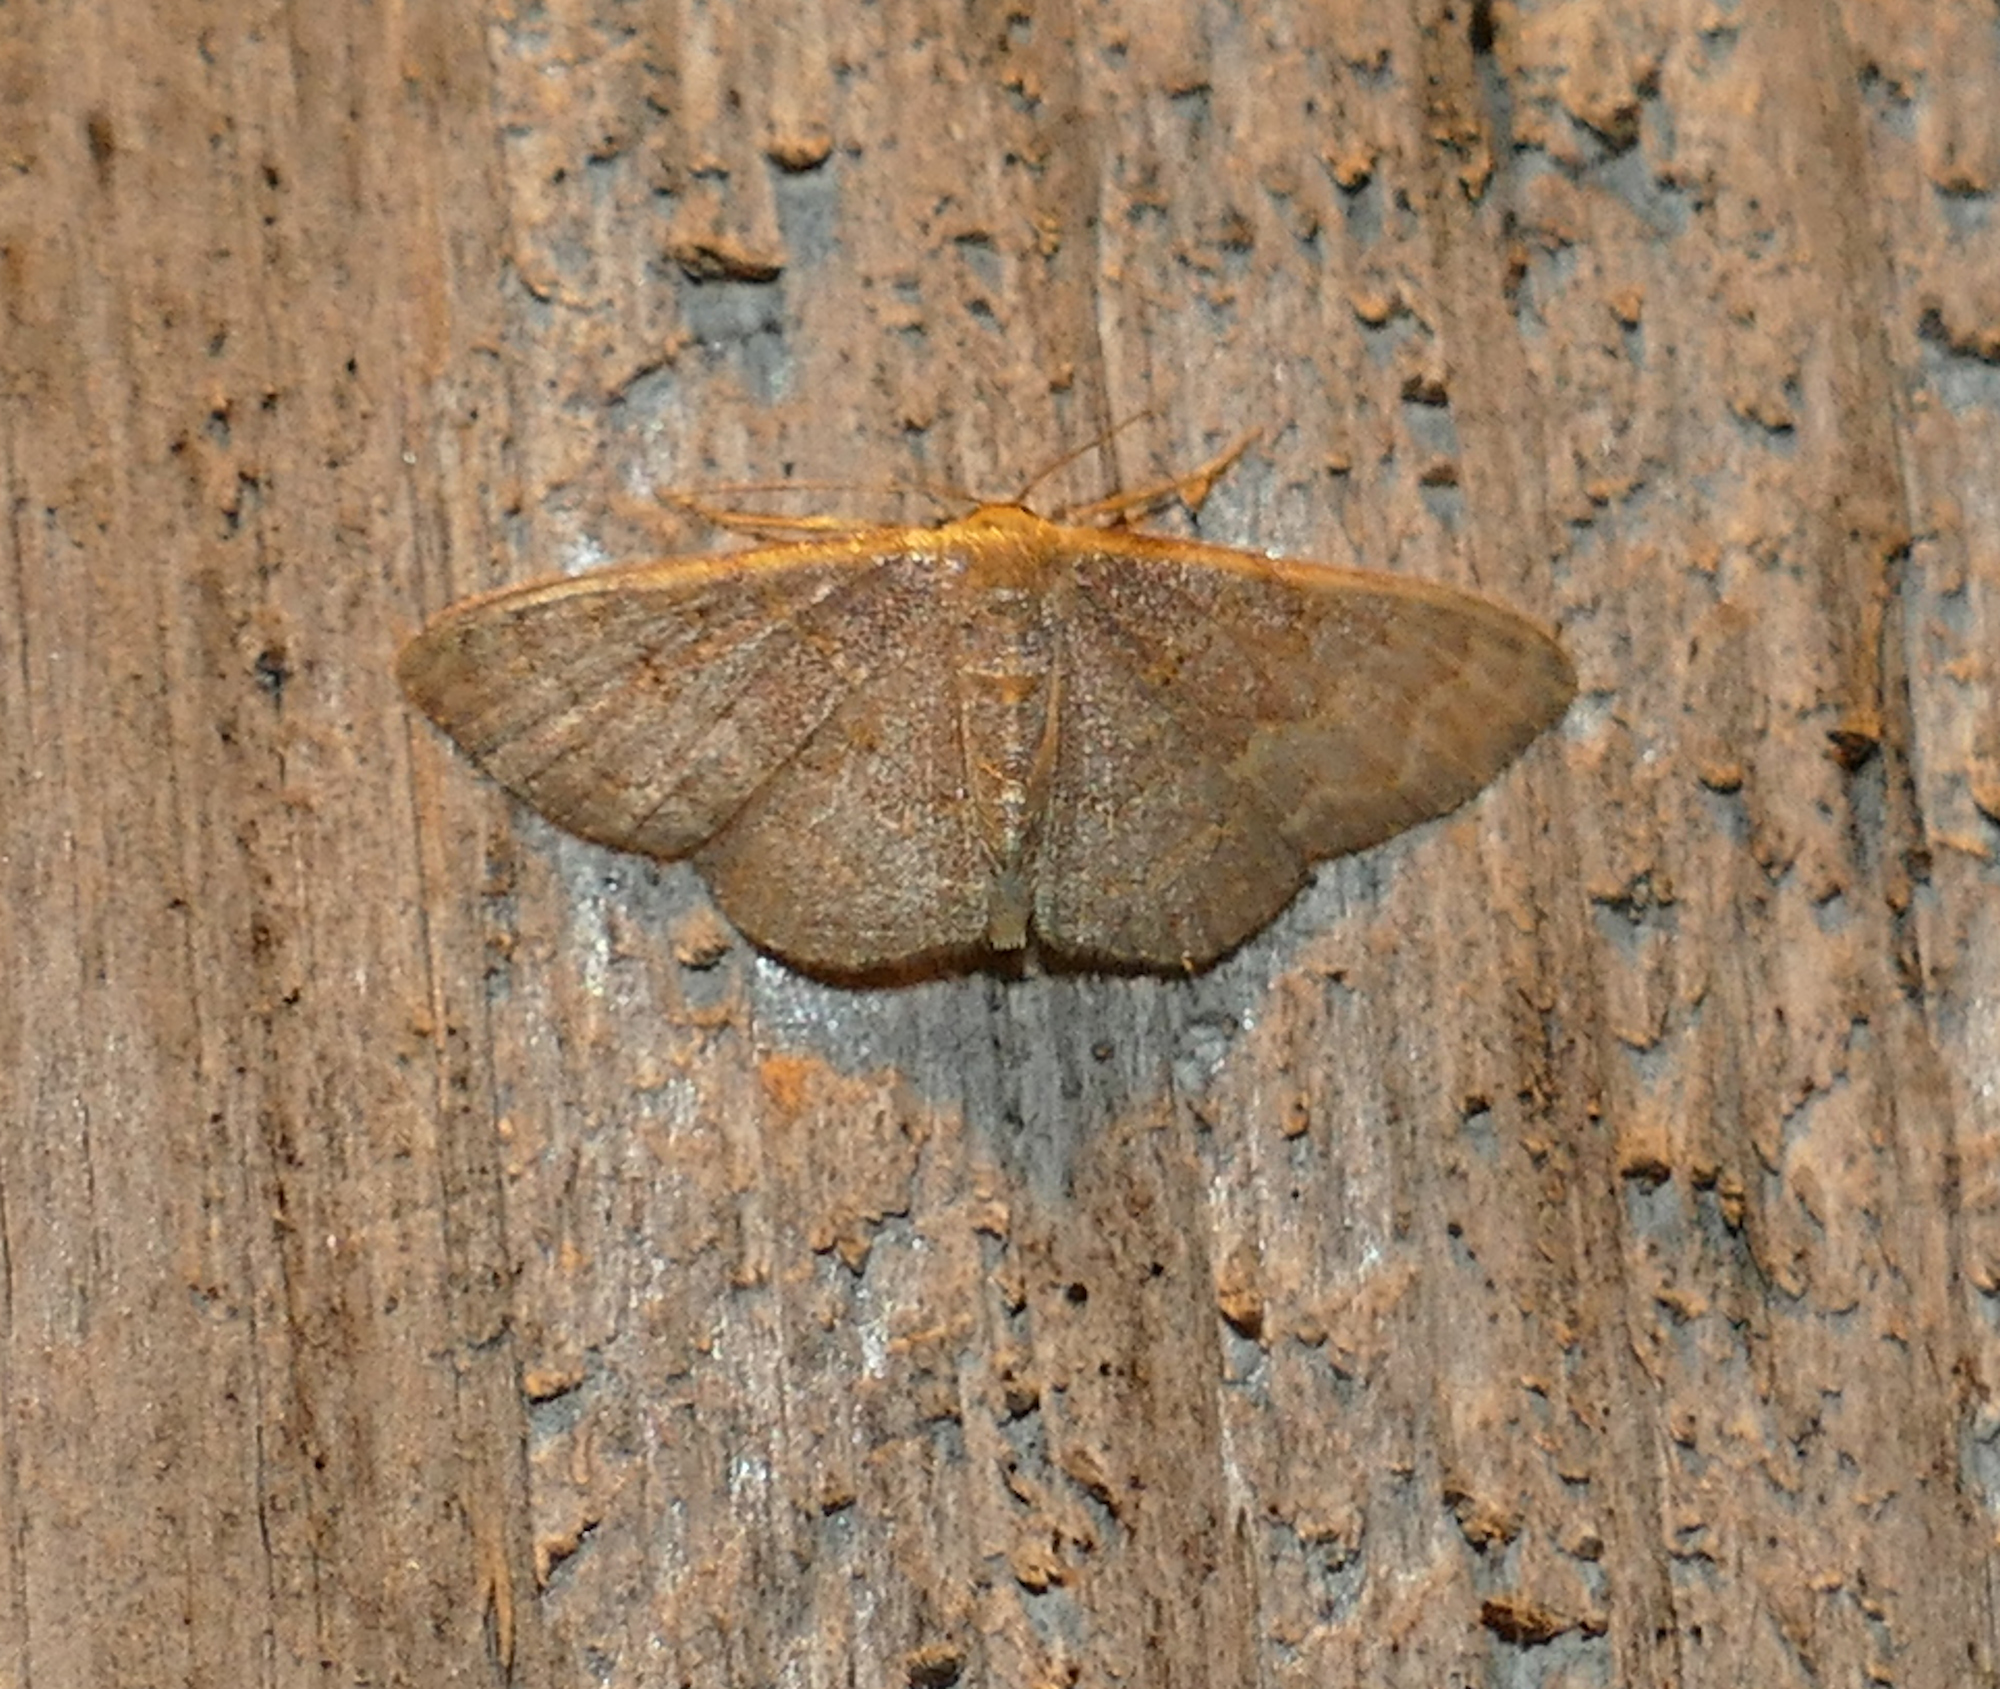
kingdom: Animalia
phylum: Arthropoda
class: Insecta
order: Lepidoptera
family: Geometridae
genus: Leptostales
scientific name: Leptostales pannaria
